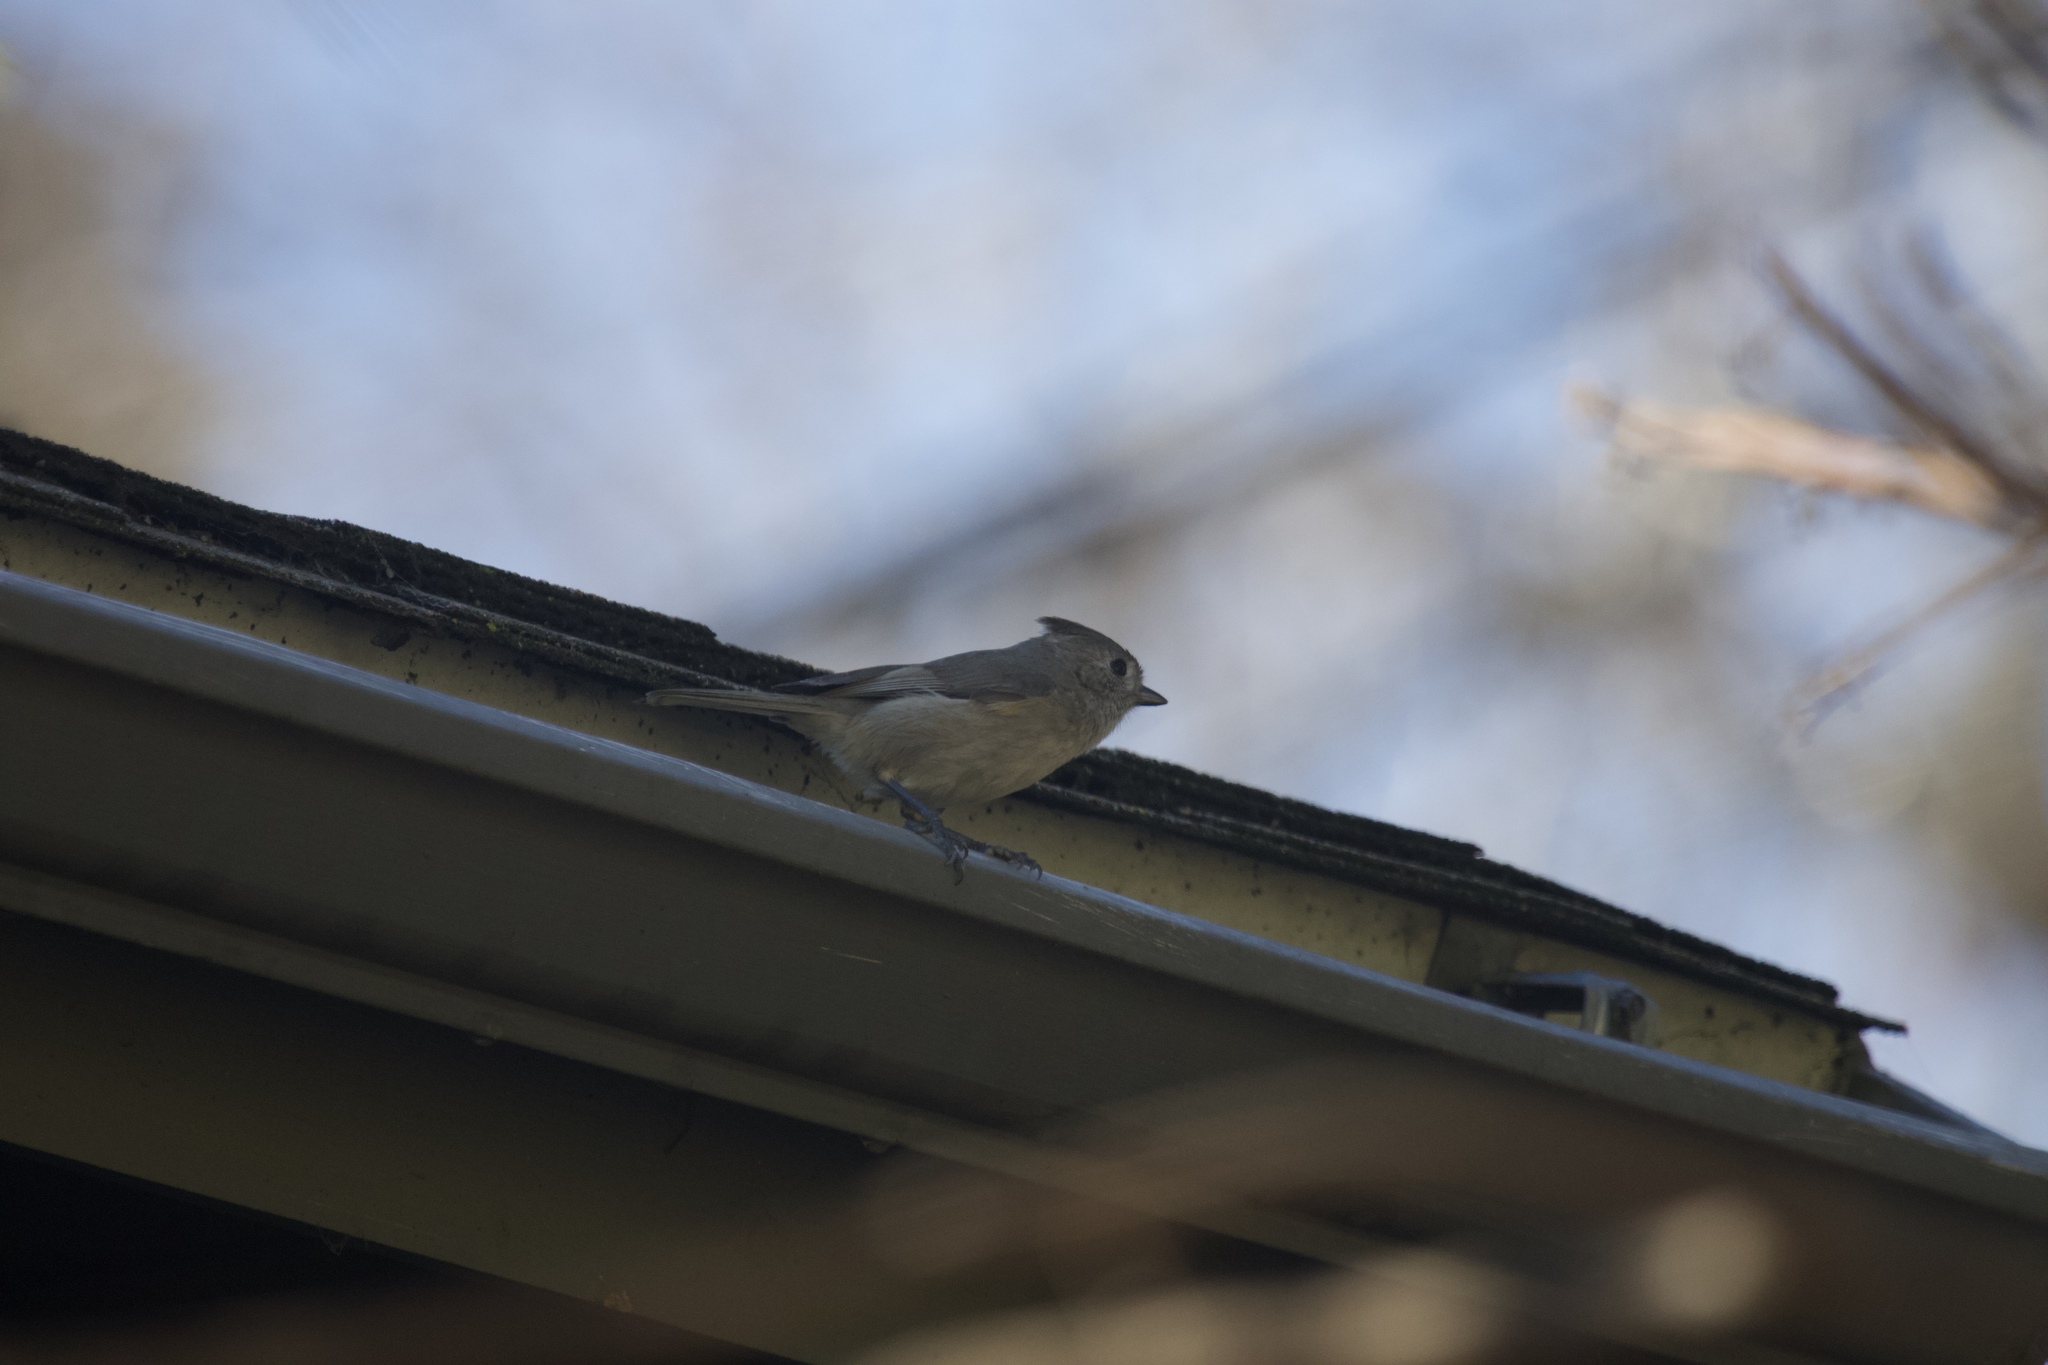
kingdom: Animalia
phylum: Chordata
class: Aves
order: Passeriformes
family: Paridae
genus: Baeolophus
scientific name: Baeolophus inornatus
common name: Oak titmouse
